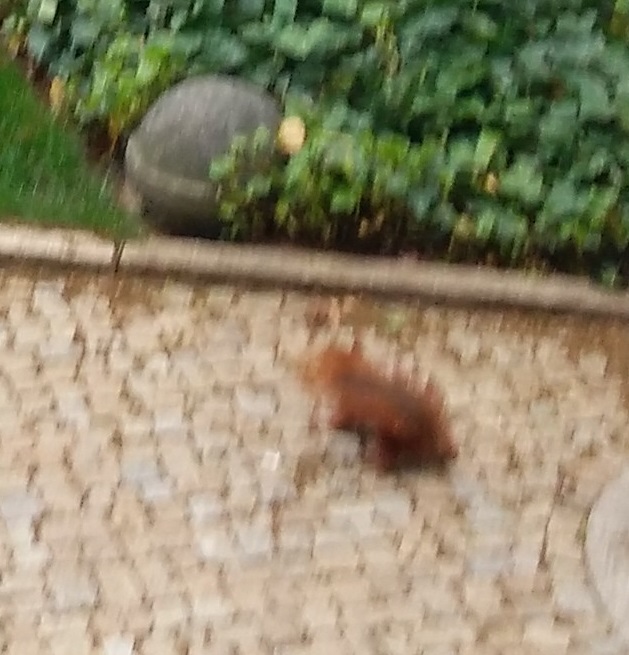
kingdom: Animalia
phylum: Chordata
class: Mammalia
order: Rodentia
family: Sciuridae
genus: Sciurus
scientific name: Sciurus vulgaris
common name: Eurasian red squirrel
